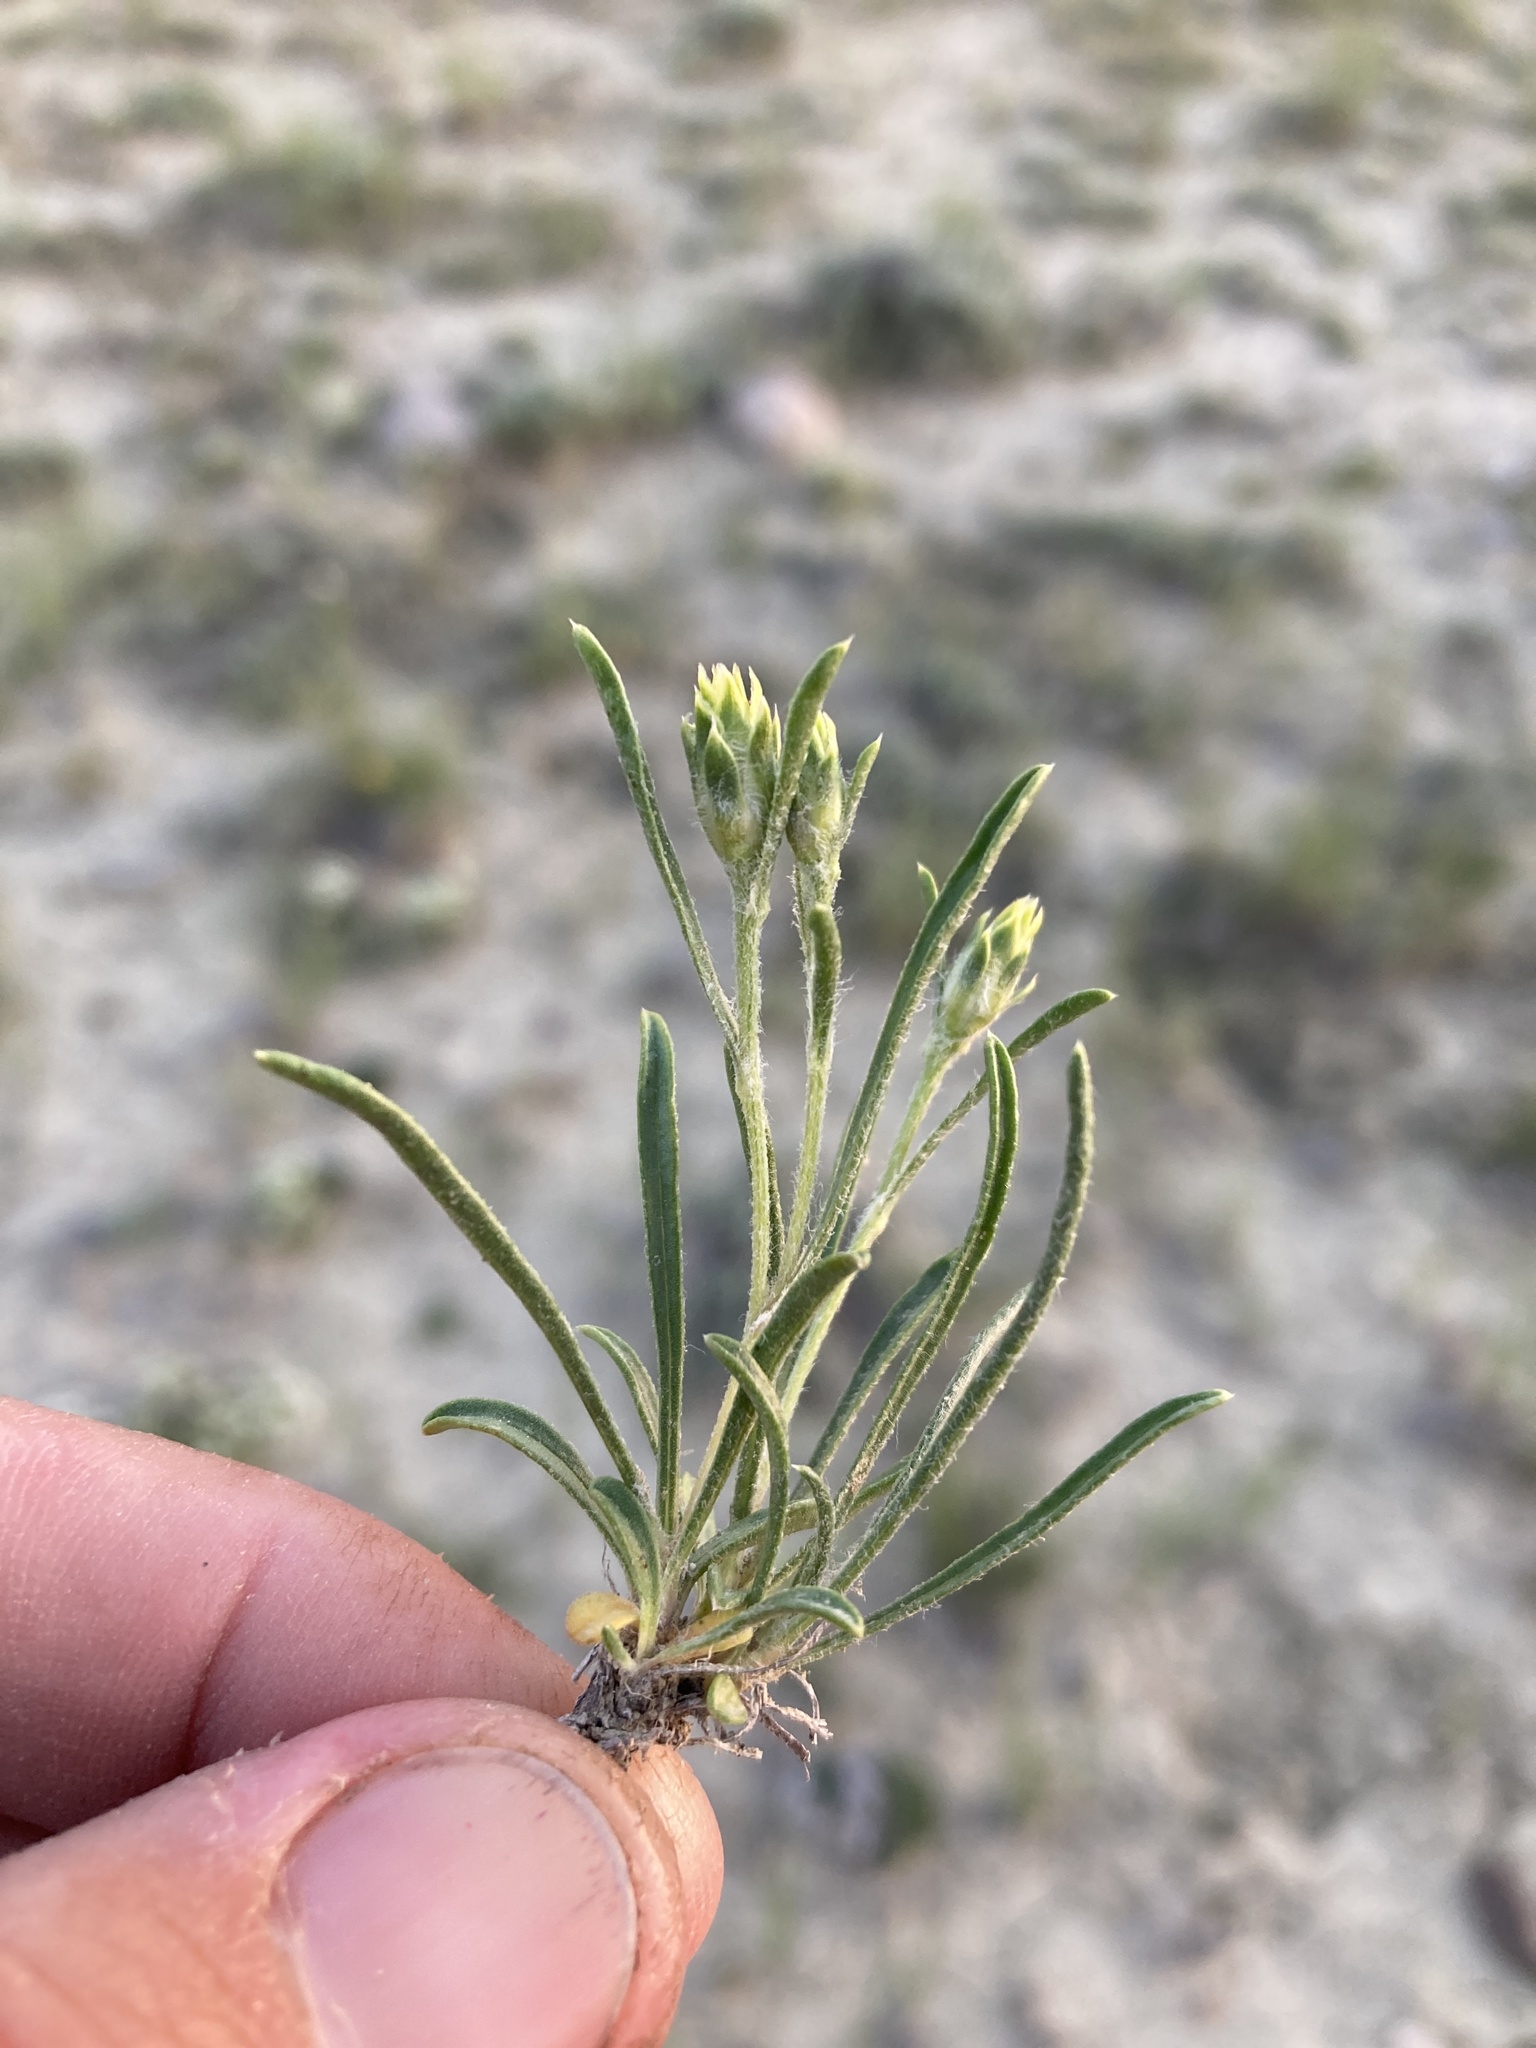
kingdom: Plantae
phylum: Tracheophyta
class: Magnoliopsida
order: Asterales
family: Asteraceae
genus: Oonopsis
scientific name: Oonopsis multicaulis
